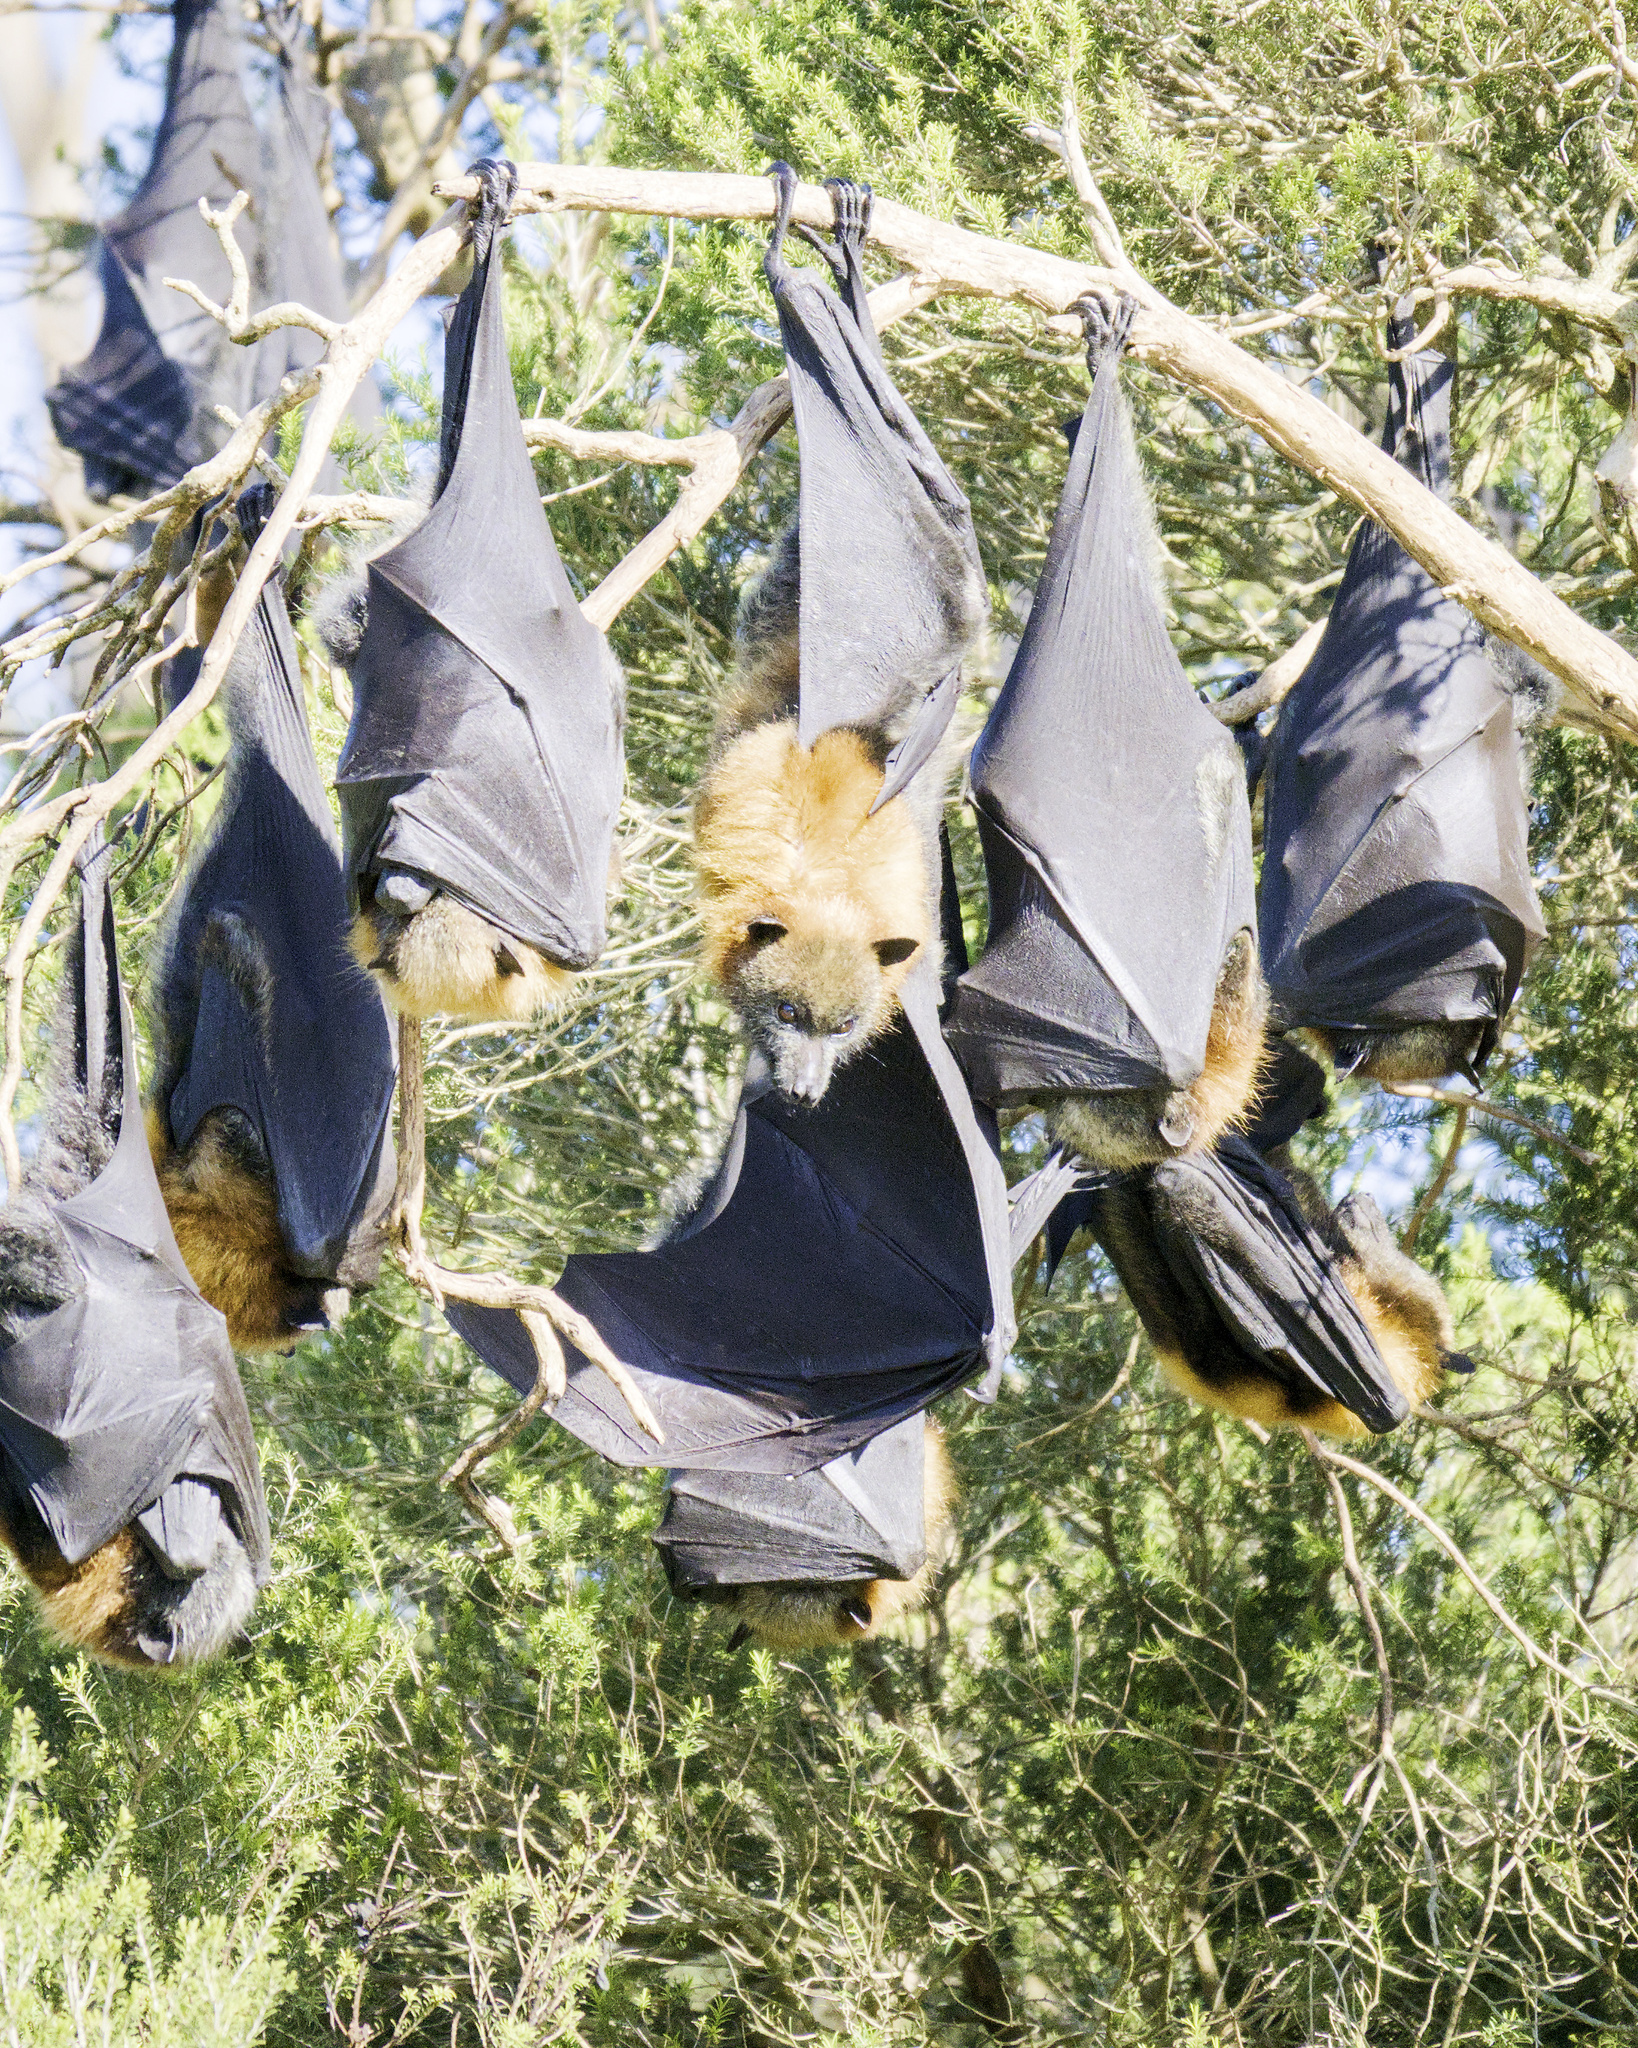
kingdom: Animalia
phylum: Chordata
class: Mammalia
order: Chiroptera
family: Pteropodidae
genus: Pteropus
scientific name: Pteropus poliocephalus
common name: Gray-headed flying fox
